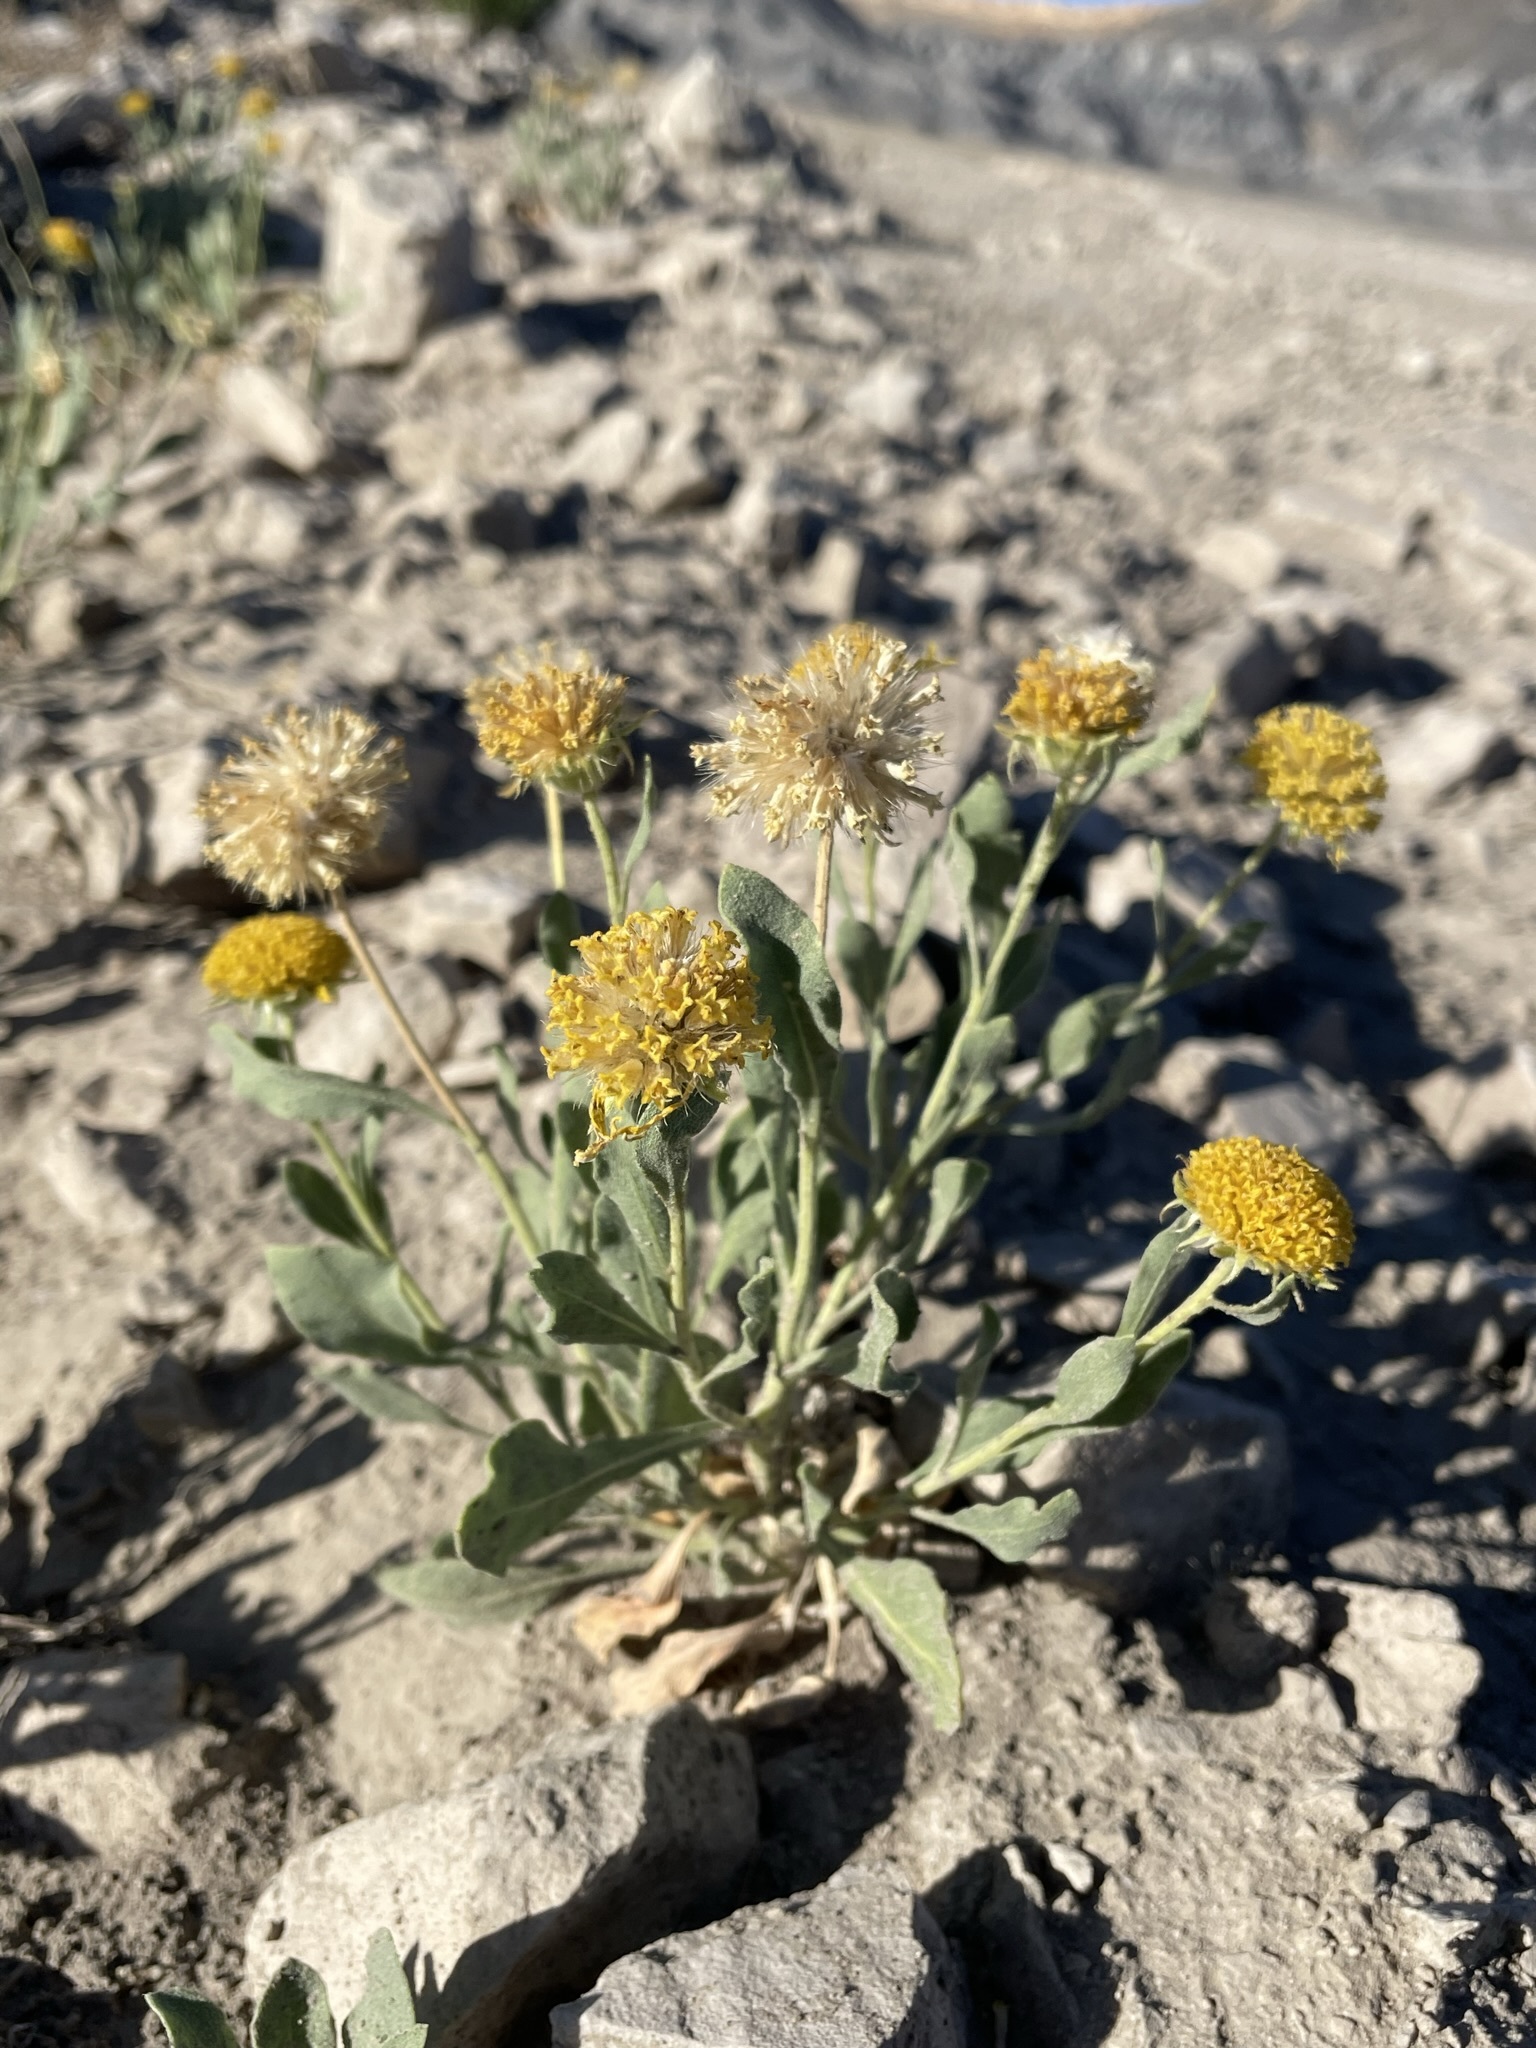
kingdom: Plantae
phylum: Tracheophyta
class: Magnoliopsida
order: Asterales
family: Asteraceae
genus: Gaillardia
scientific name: Gaillardia spathulata
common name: Basin blanket-flower
